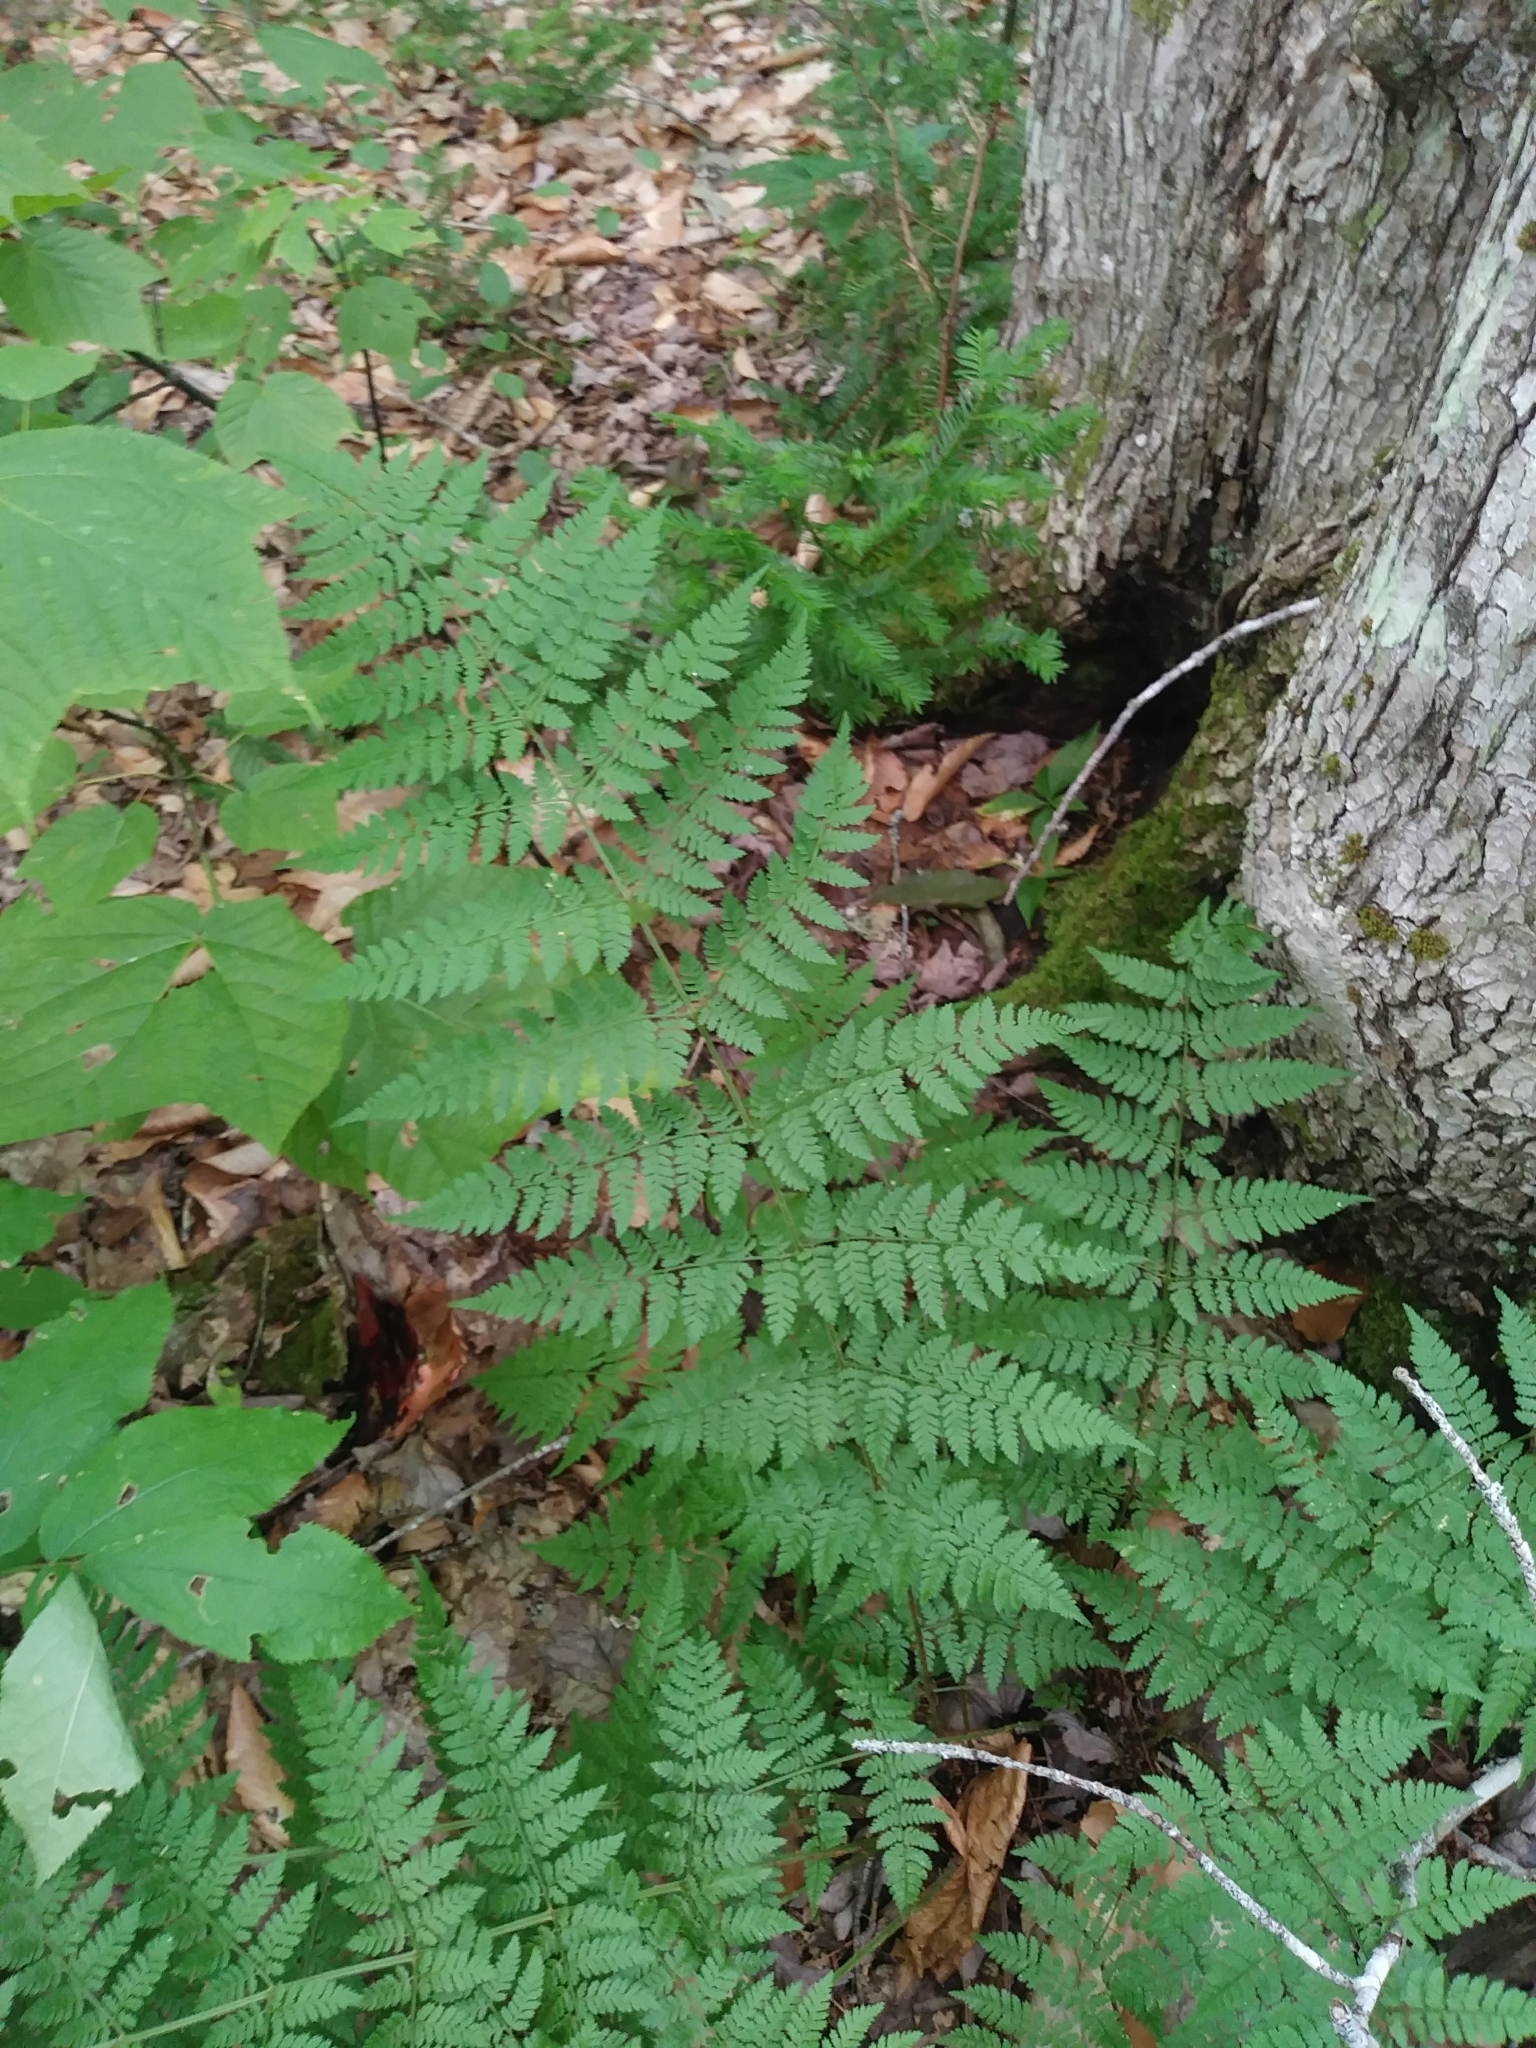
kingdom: Plantae
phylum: Tracheophyta
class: Polypodiopsida
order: Polypodiales
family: Dryopteridaceae
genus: Dryopteris
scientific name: Dryopteris intermedia
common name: Evergreen wood fern
